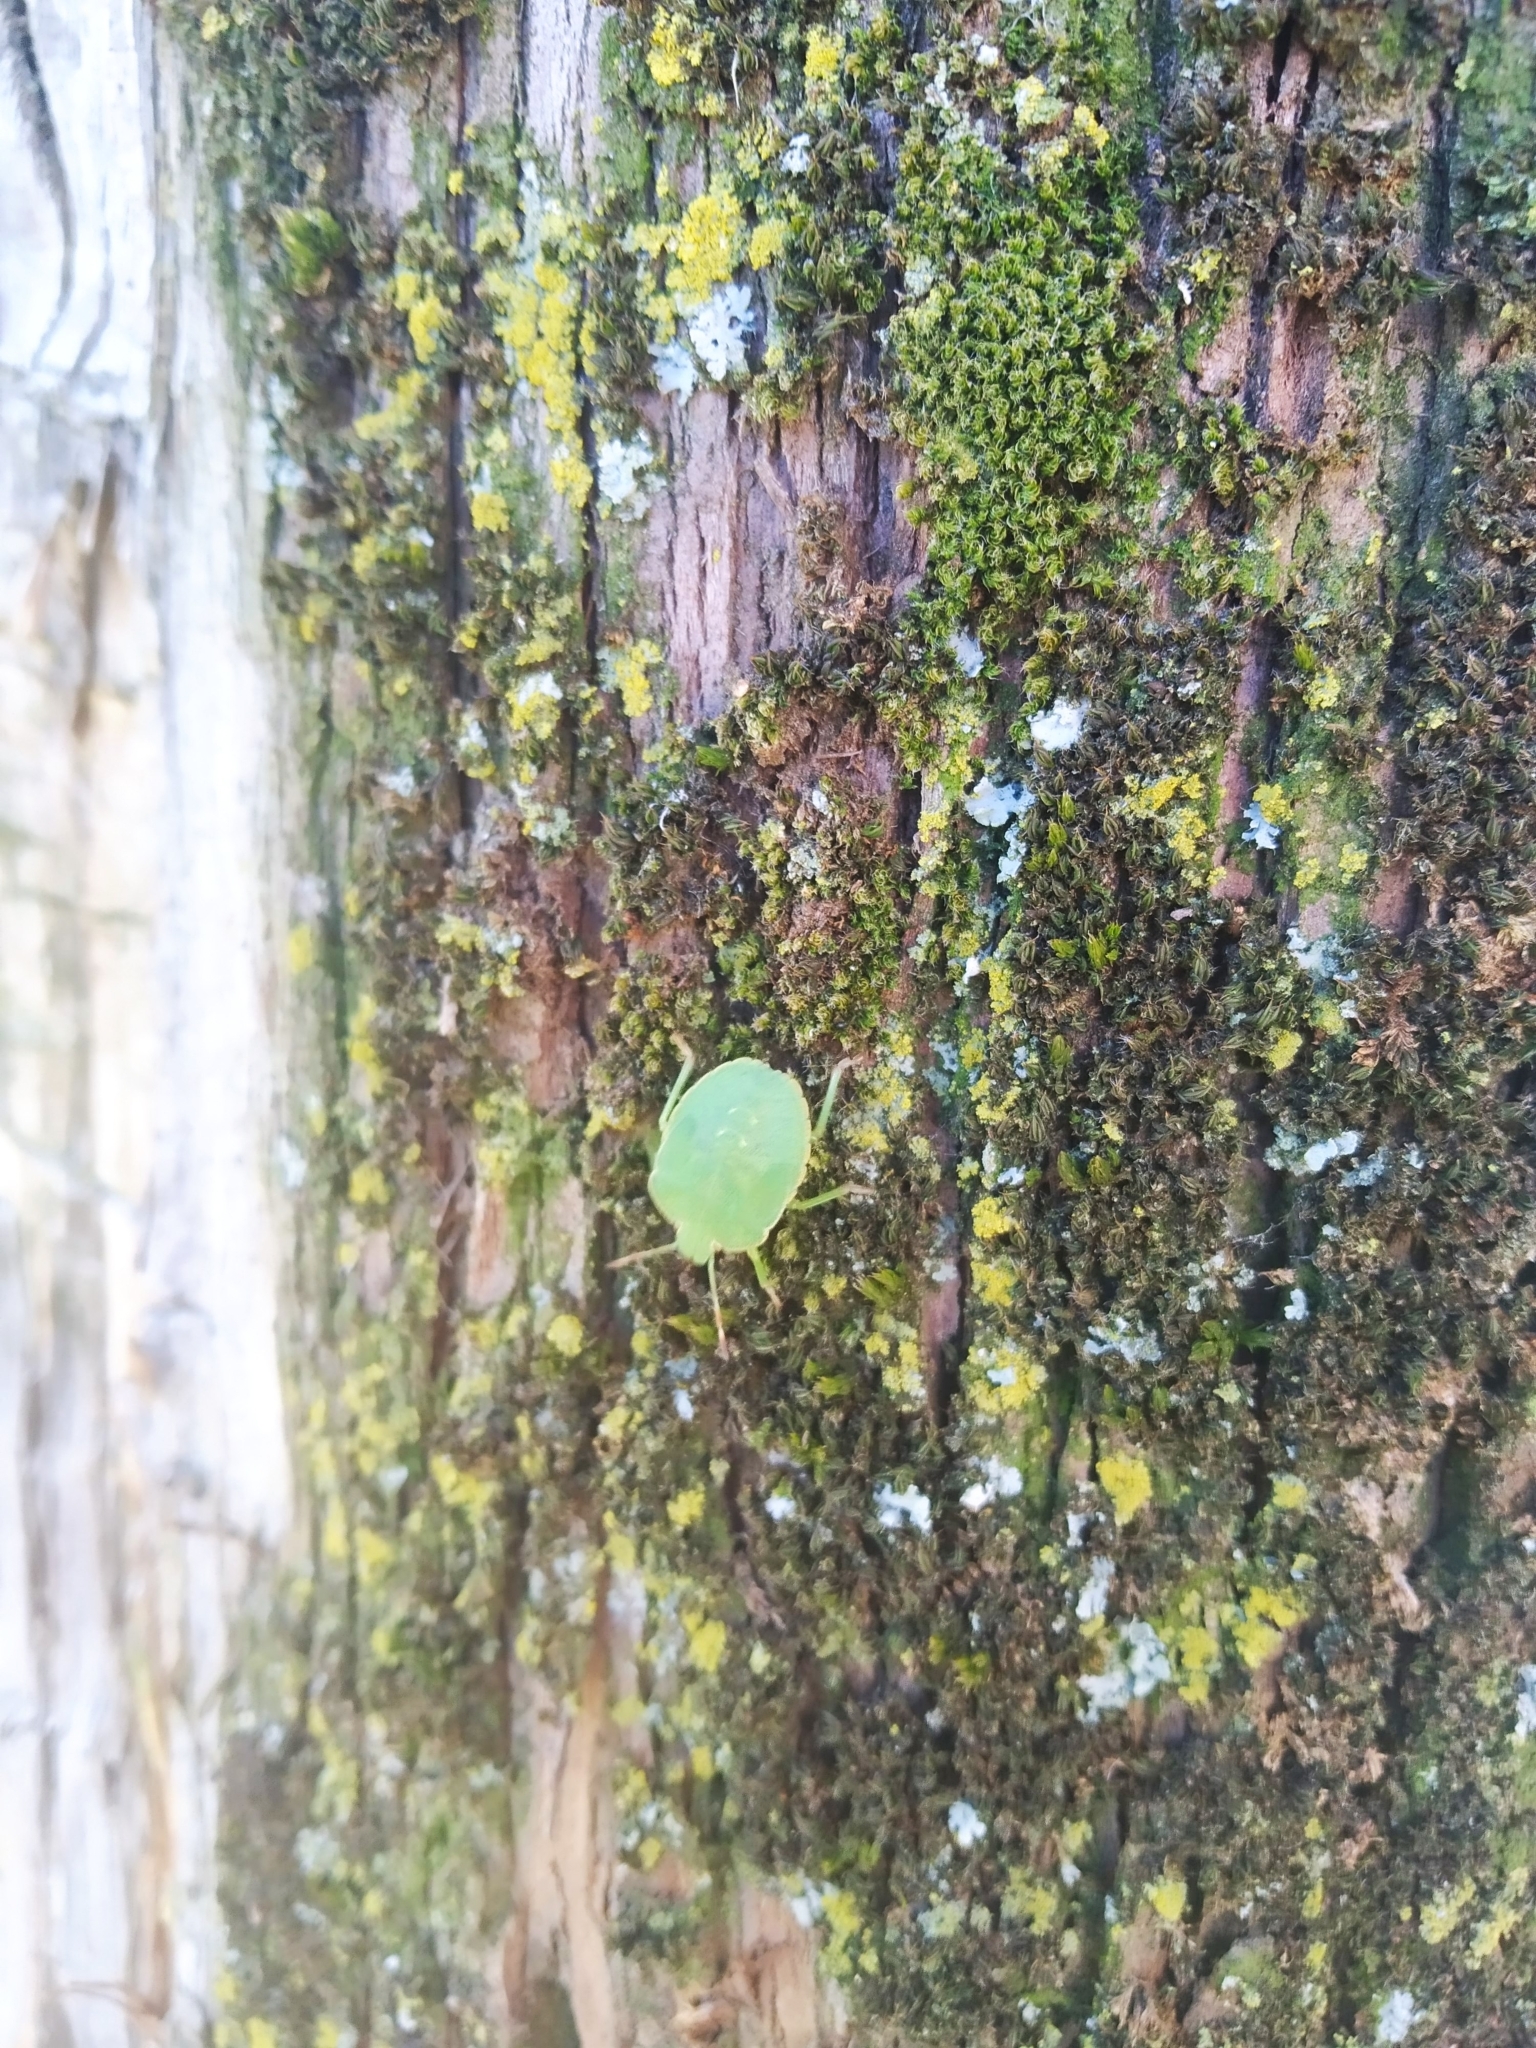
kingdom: Animalia
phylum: Arthropoda
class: Insecta
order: Hemiptera
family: Pentatomidae
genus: Palomena
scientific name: Palomena prasina
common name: Green shieldbug
